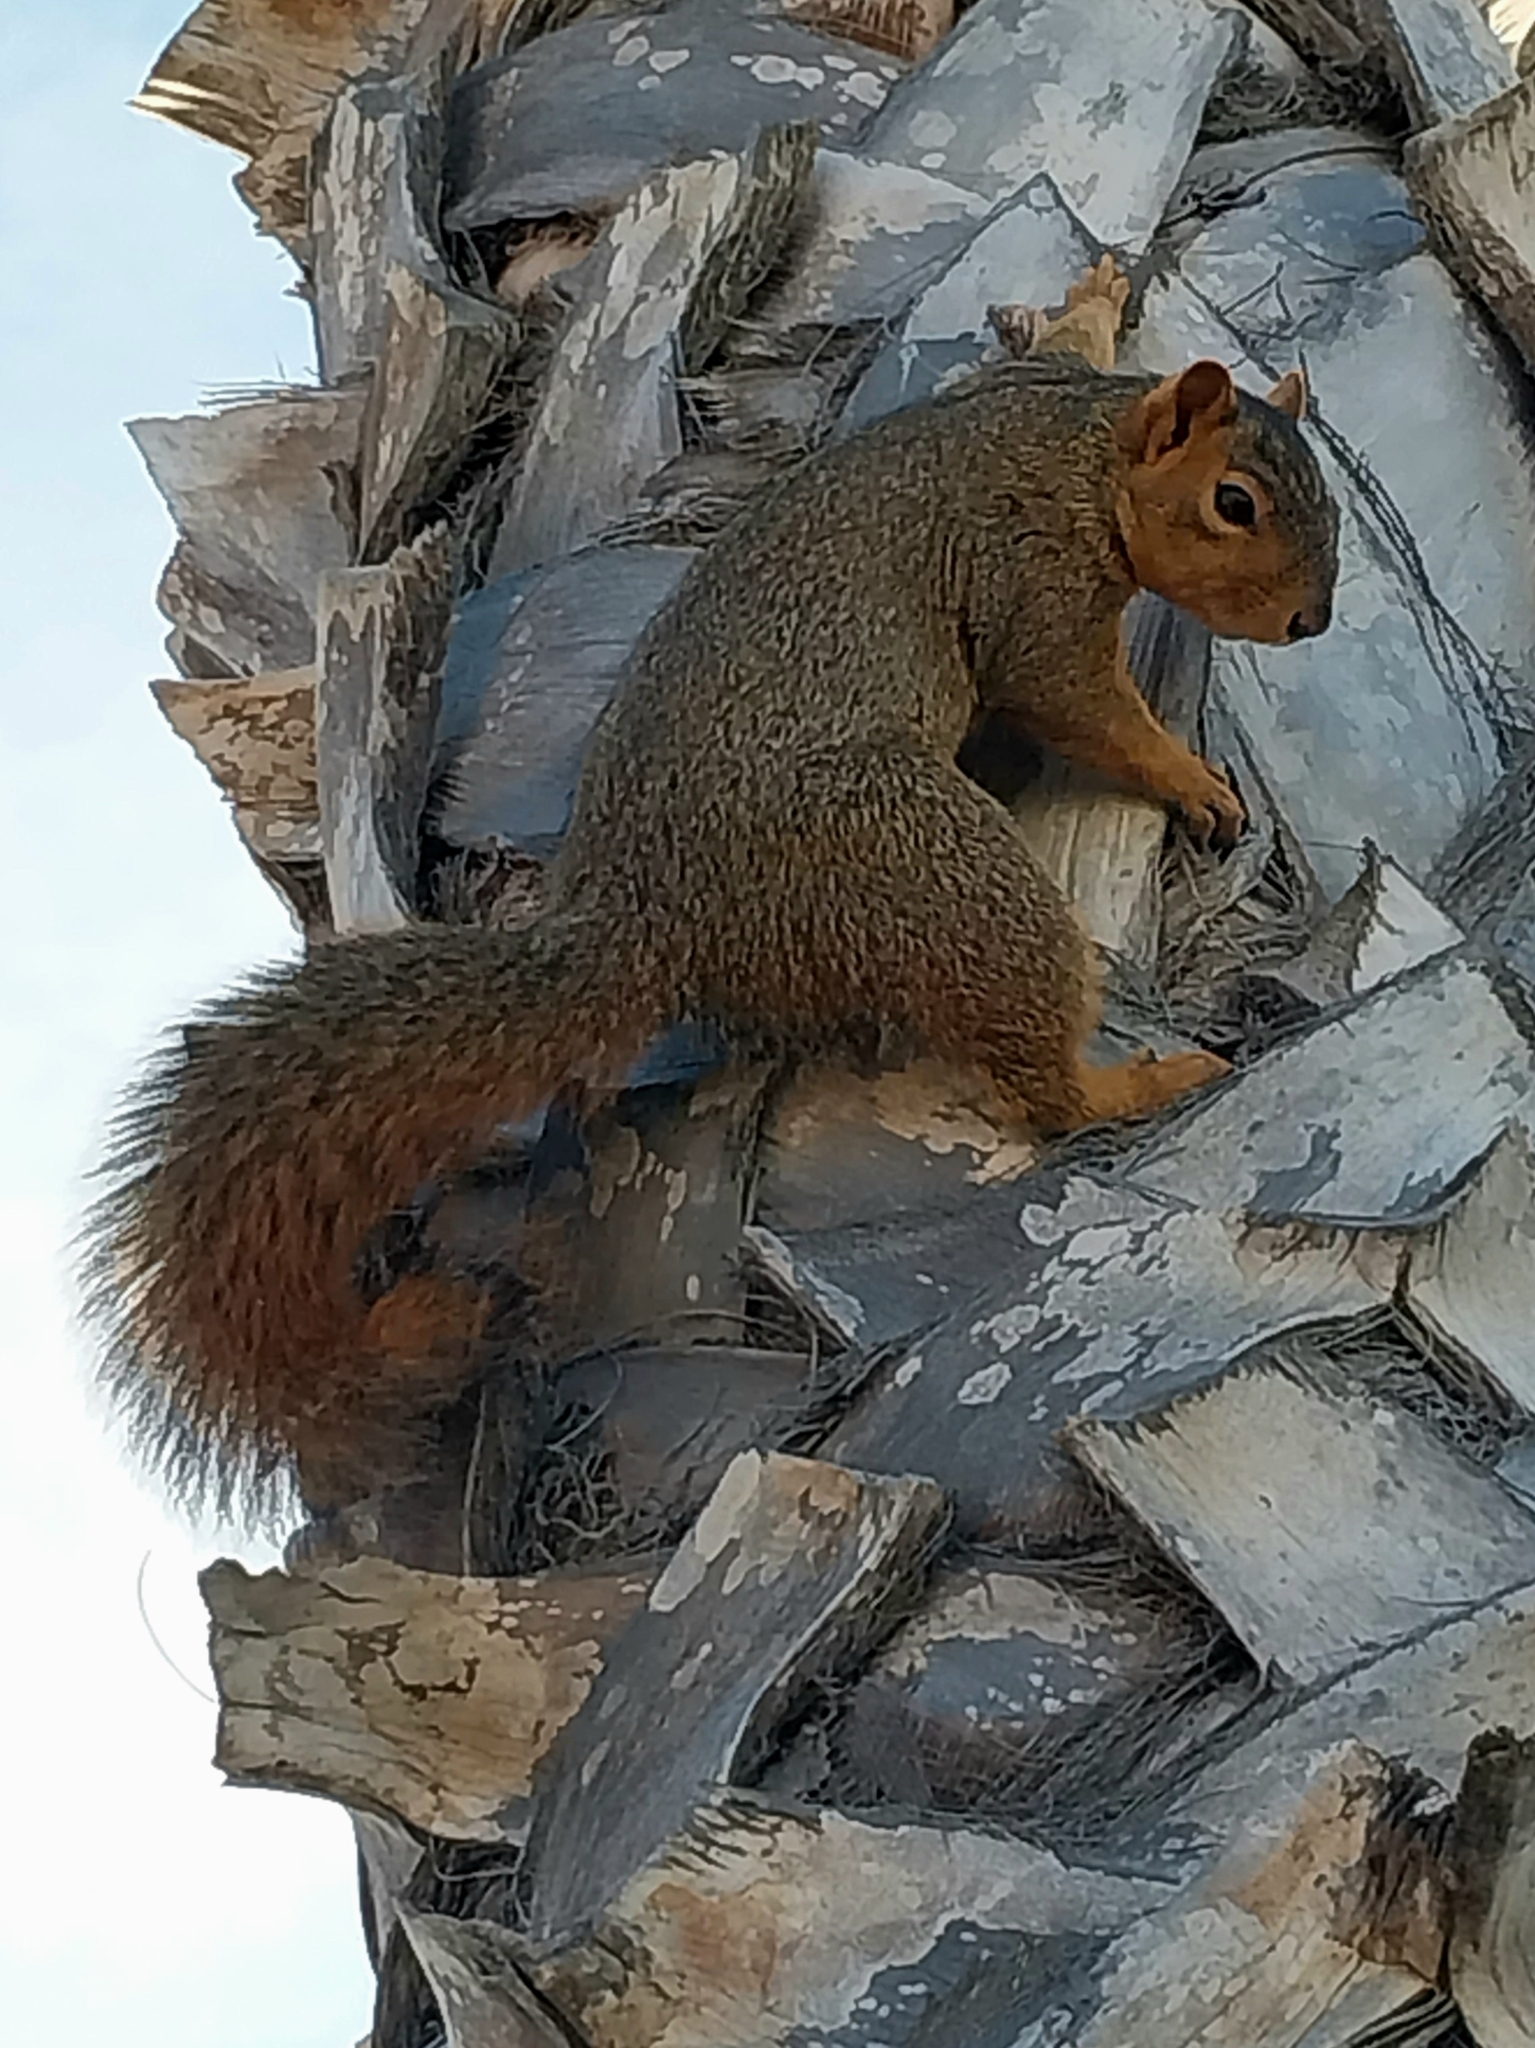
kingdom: Animalia
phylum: Chordata
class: Mammalia
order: Rodentia
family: Sciuridae
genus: Sciurus
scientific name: Sciurus niger
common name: Fox squirrel
